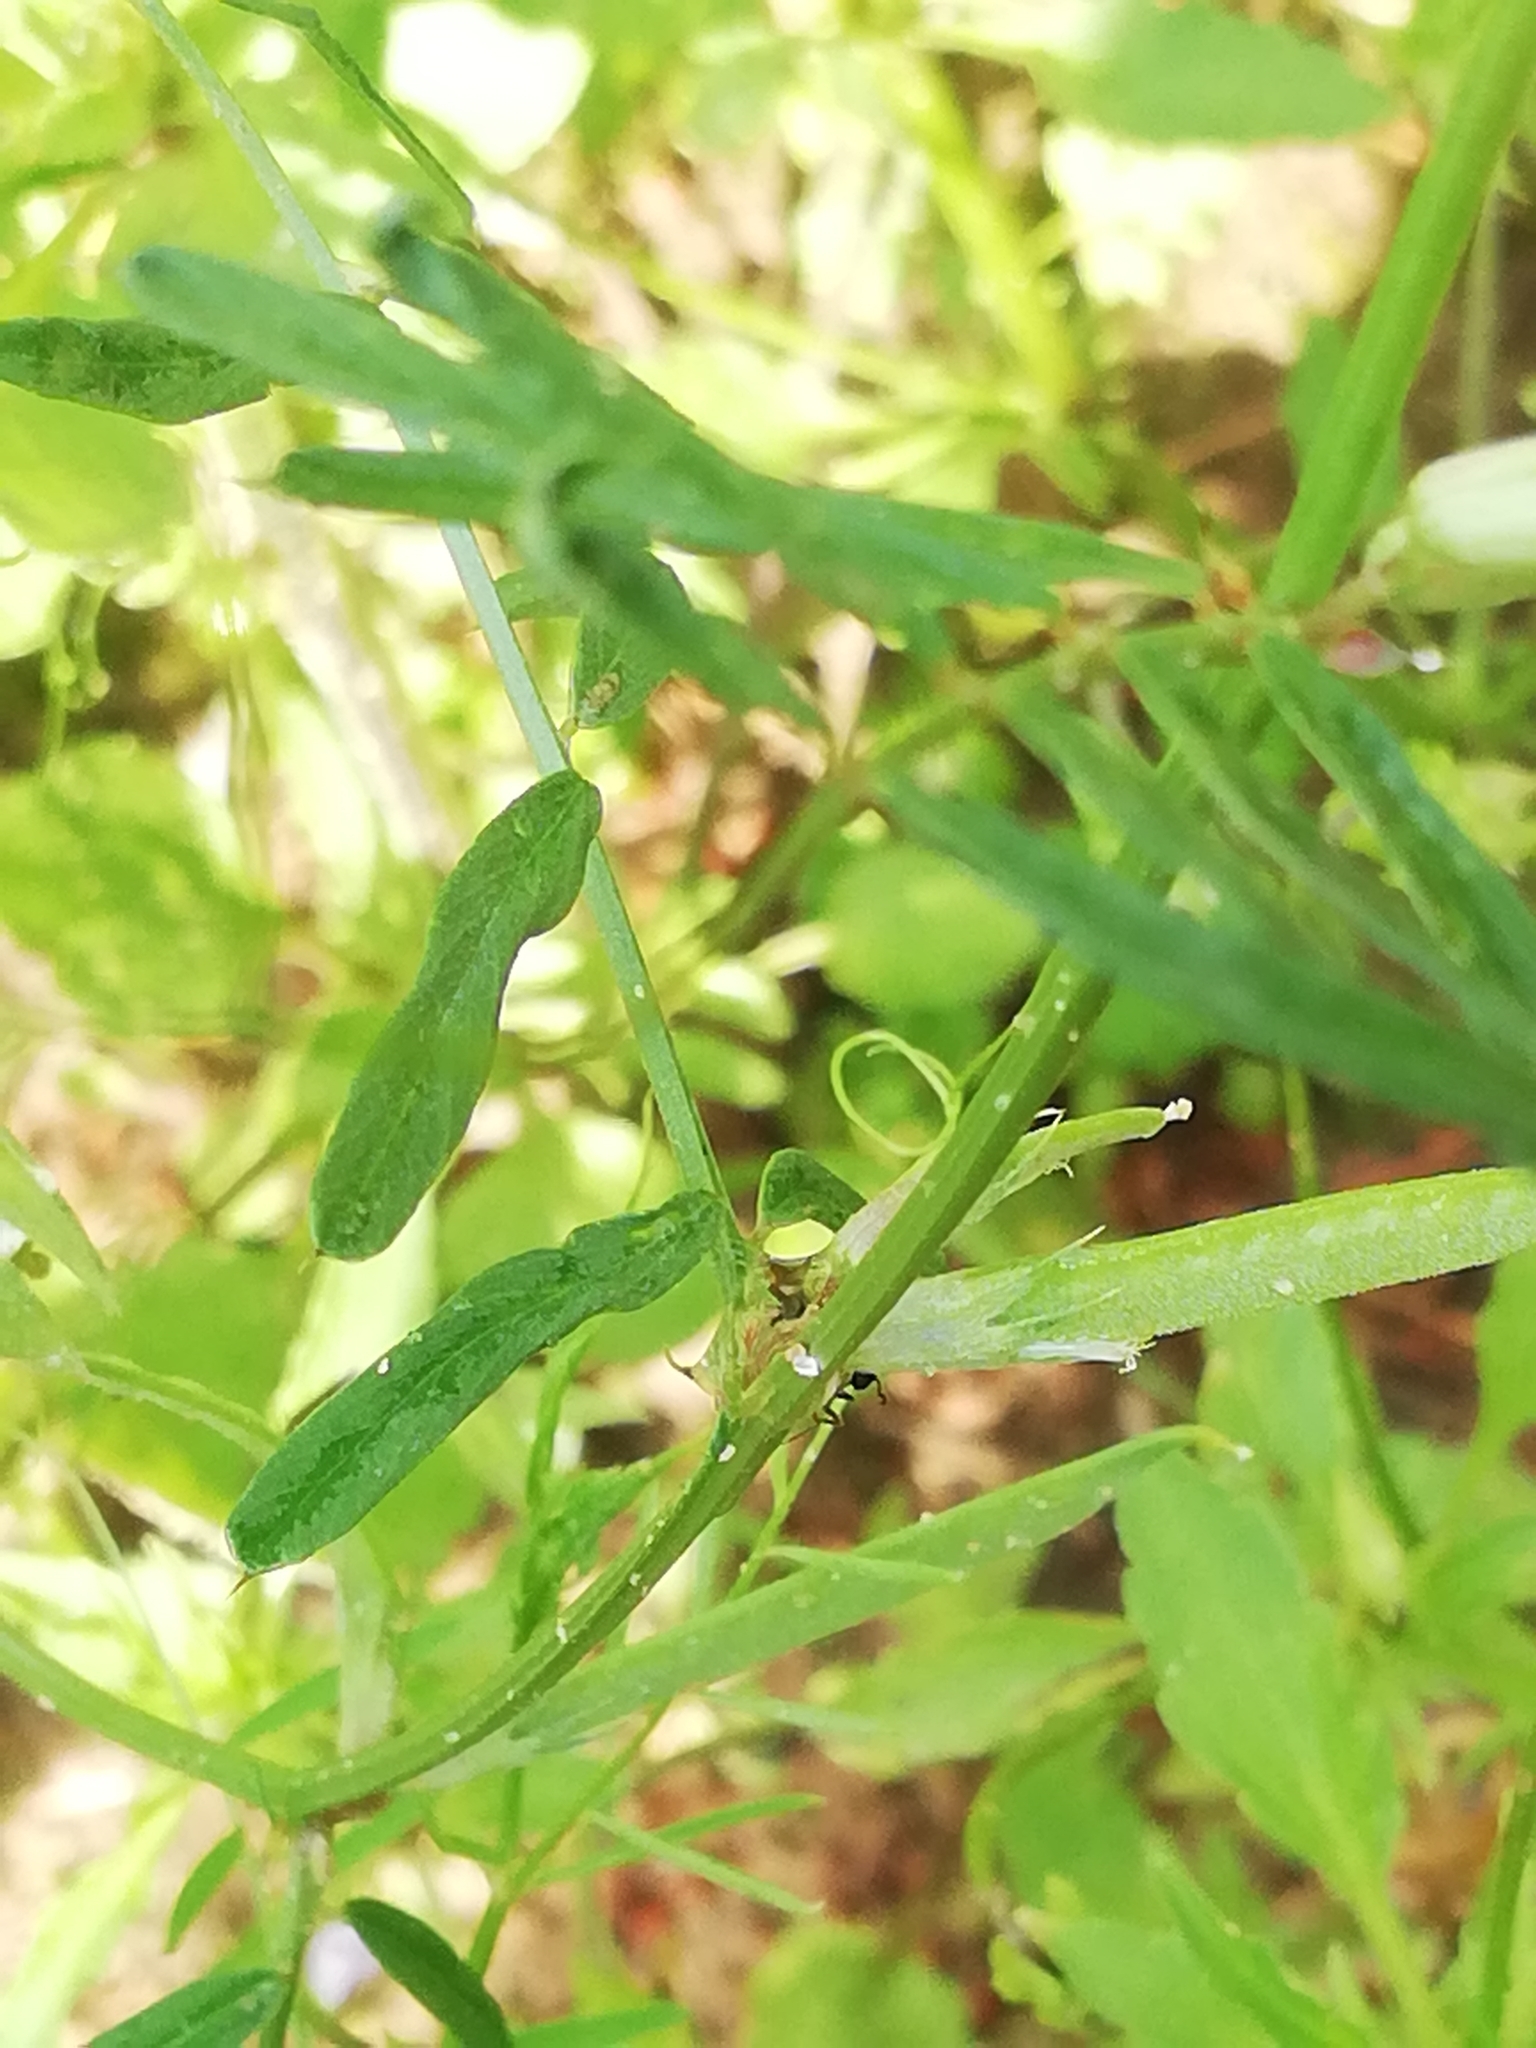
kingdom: Plantae
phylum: Tracheophyta
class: Magnoliopsida
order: Fabales
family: Fabaceae
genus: Vicia
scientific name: Vicia sativa
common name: Garden vetch
